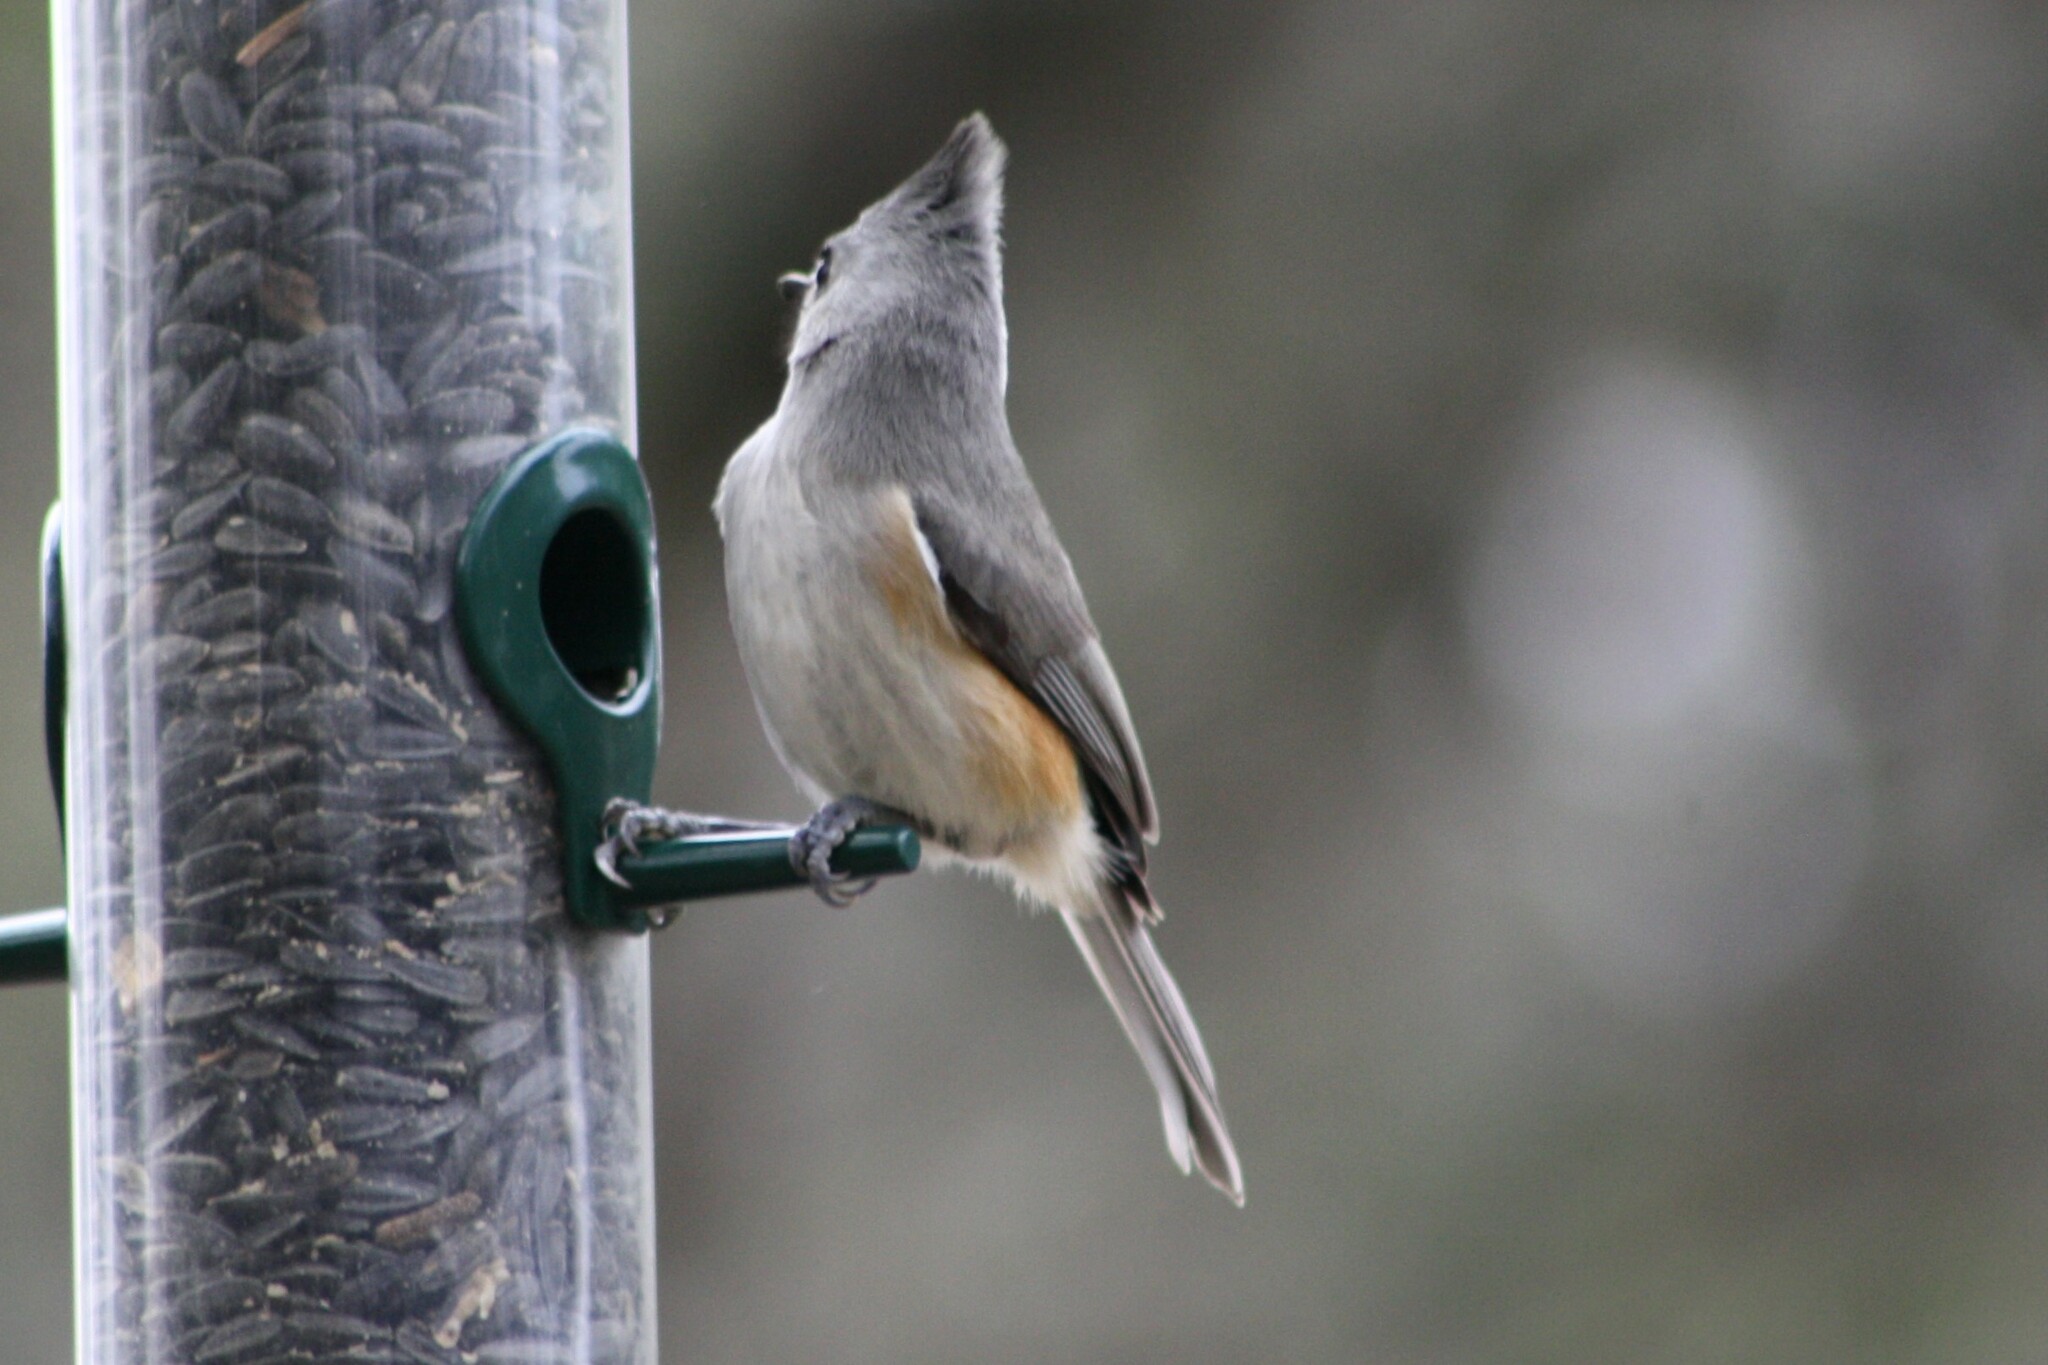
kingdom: Animalia
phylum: Chordata
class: Aves
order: Passeriformes
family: Paridae
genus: Baeolophus
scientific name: Baeolophus atricristatus
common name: Black-crested titmouse
